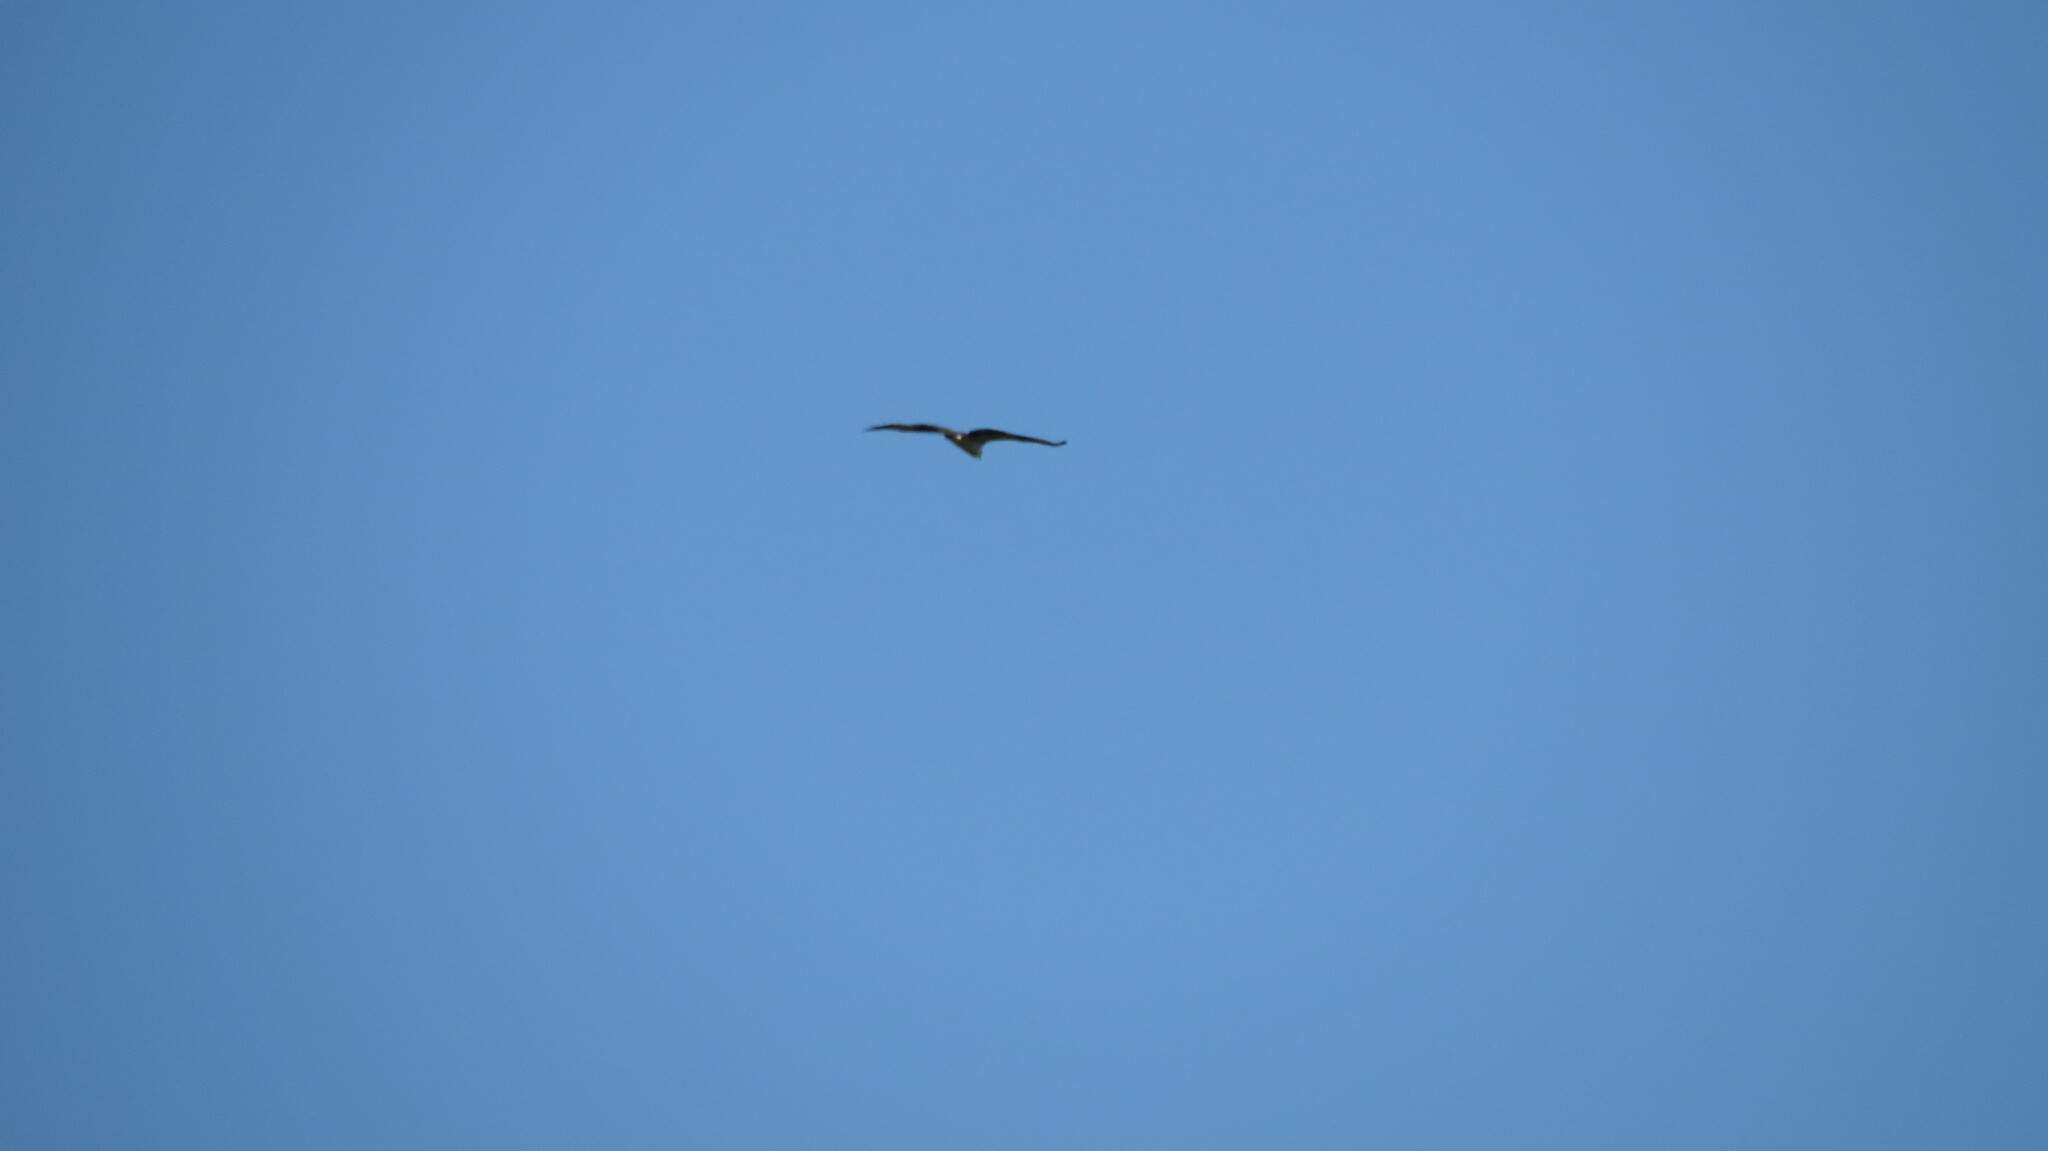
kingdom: Animalia
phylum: Chordata
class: Aves
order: Accipitriformes
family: Pandionidae
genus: Pandion
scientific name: Pandion haliaetus
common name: Osprey
